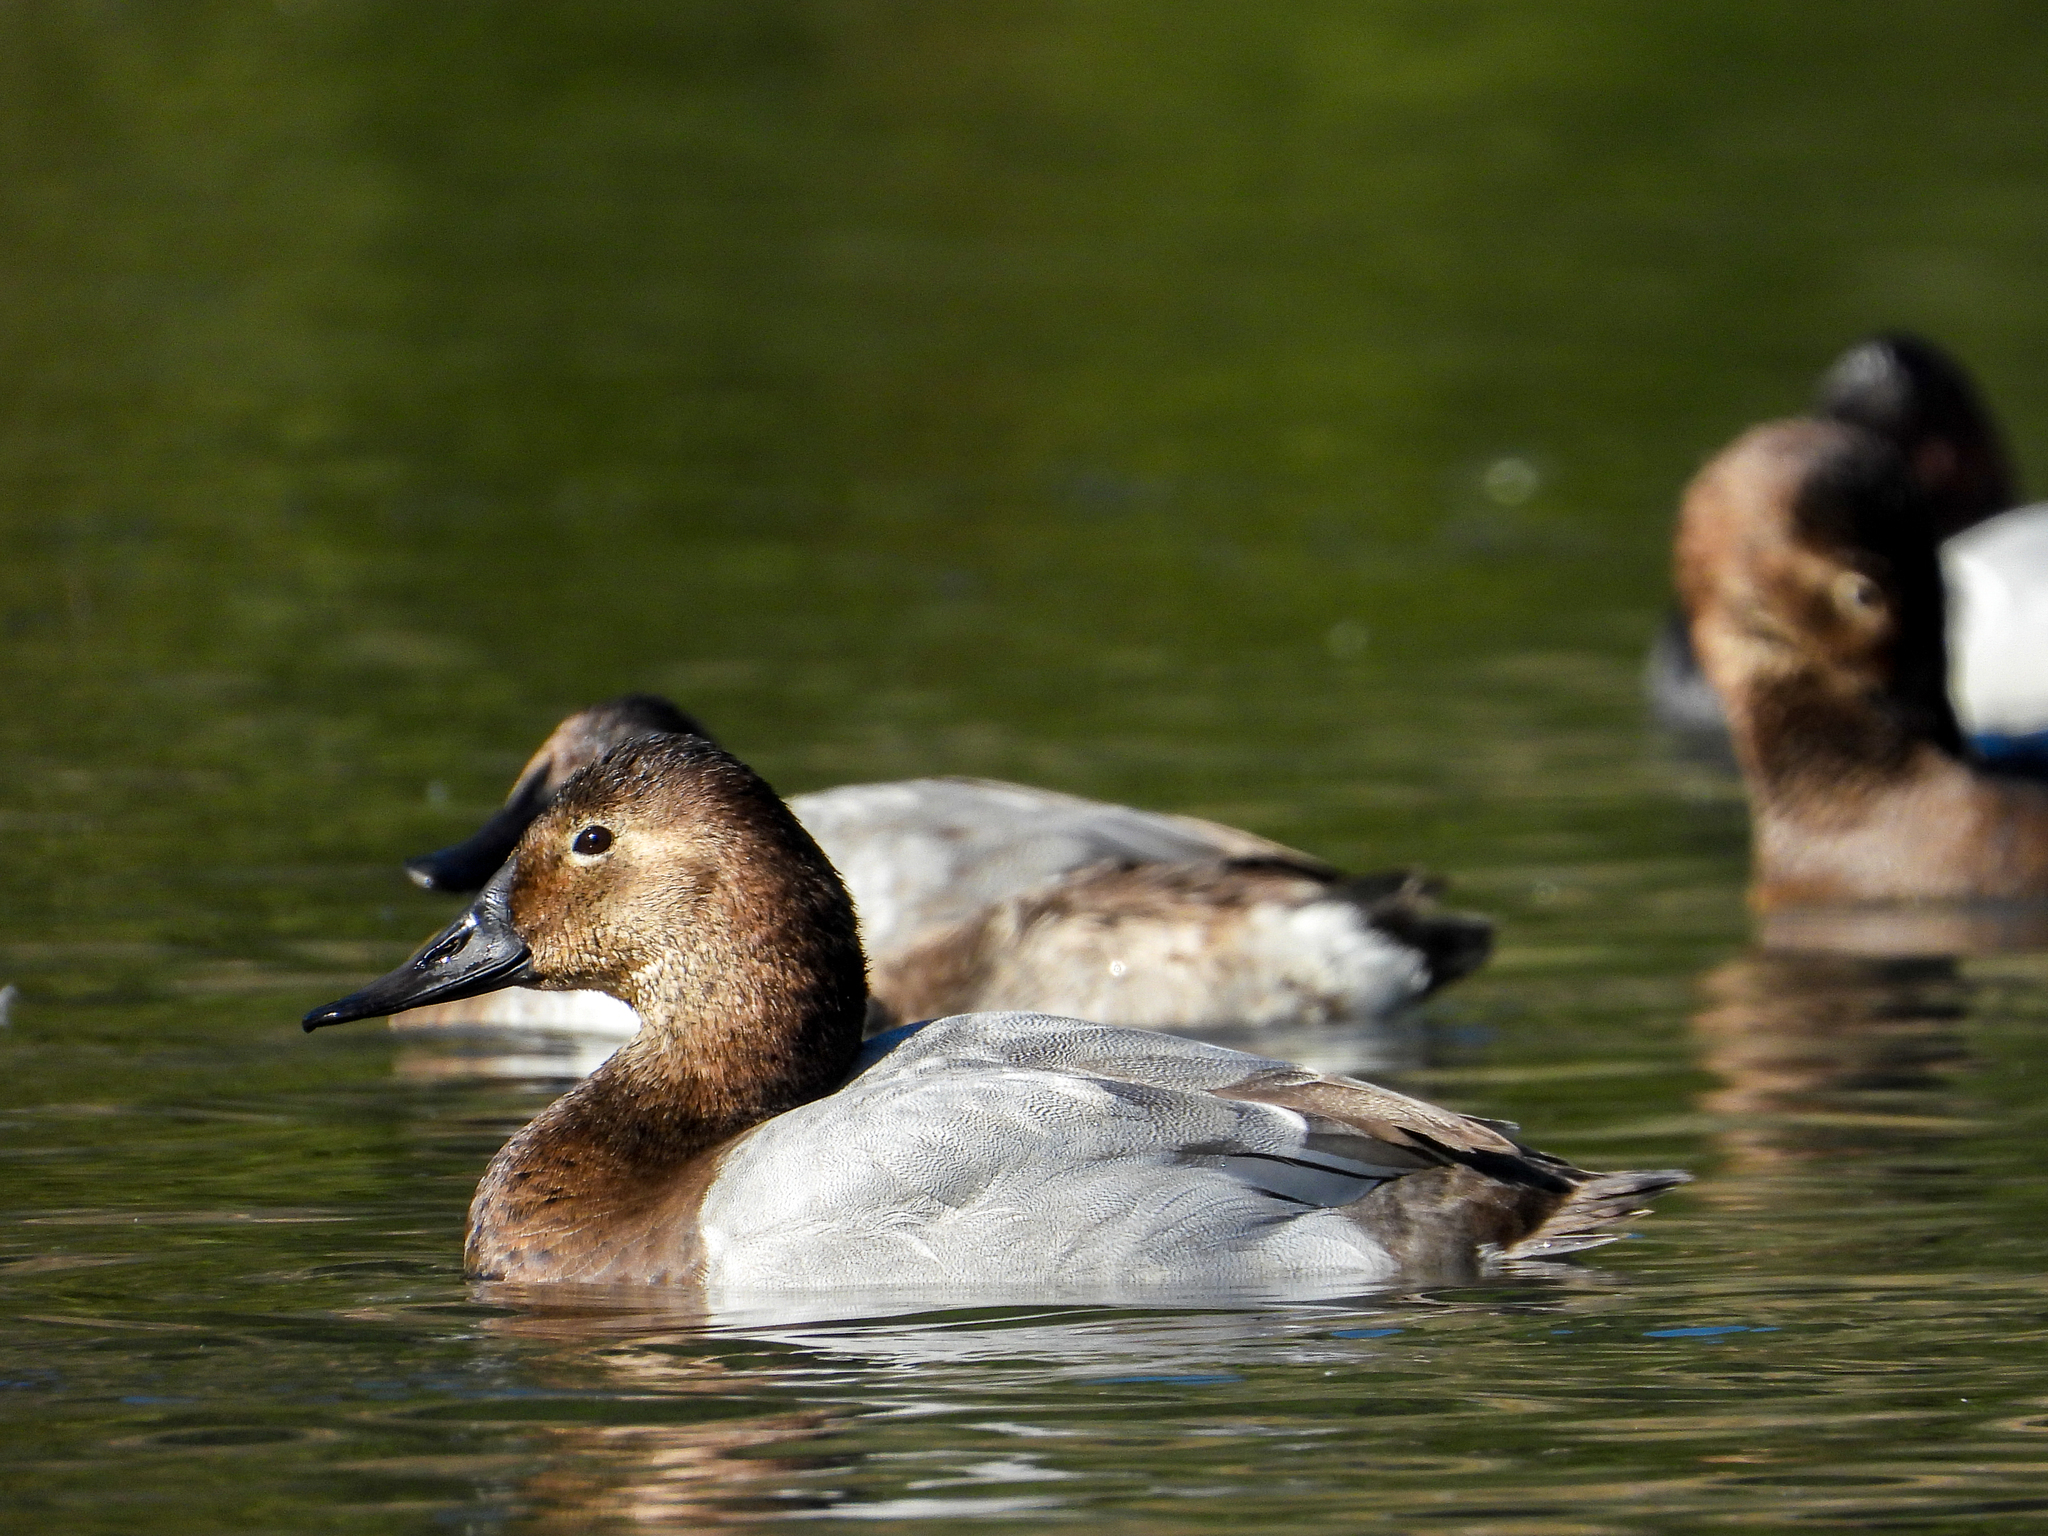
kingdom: Animalia
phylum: Chordata
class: Aves
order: Anseriformes
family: Anatidae
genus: Aythya
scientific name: Aythya valisineria
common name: Canvasback
